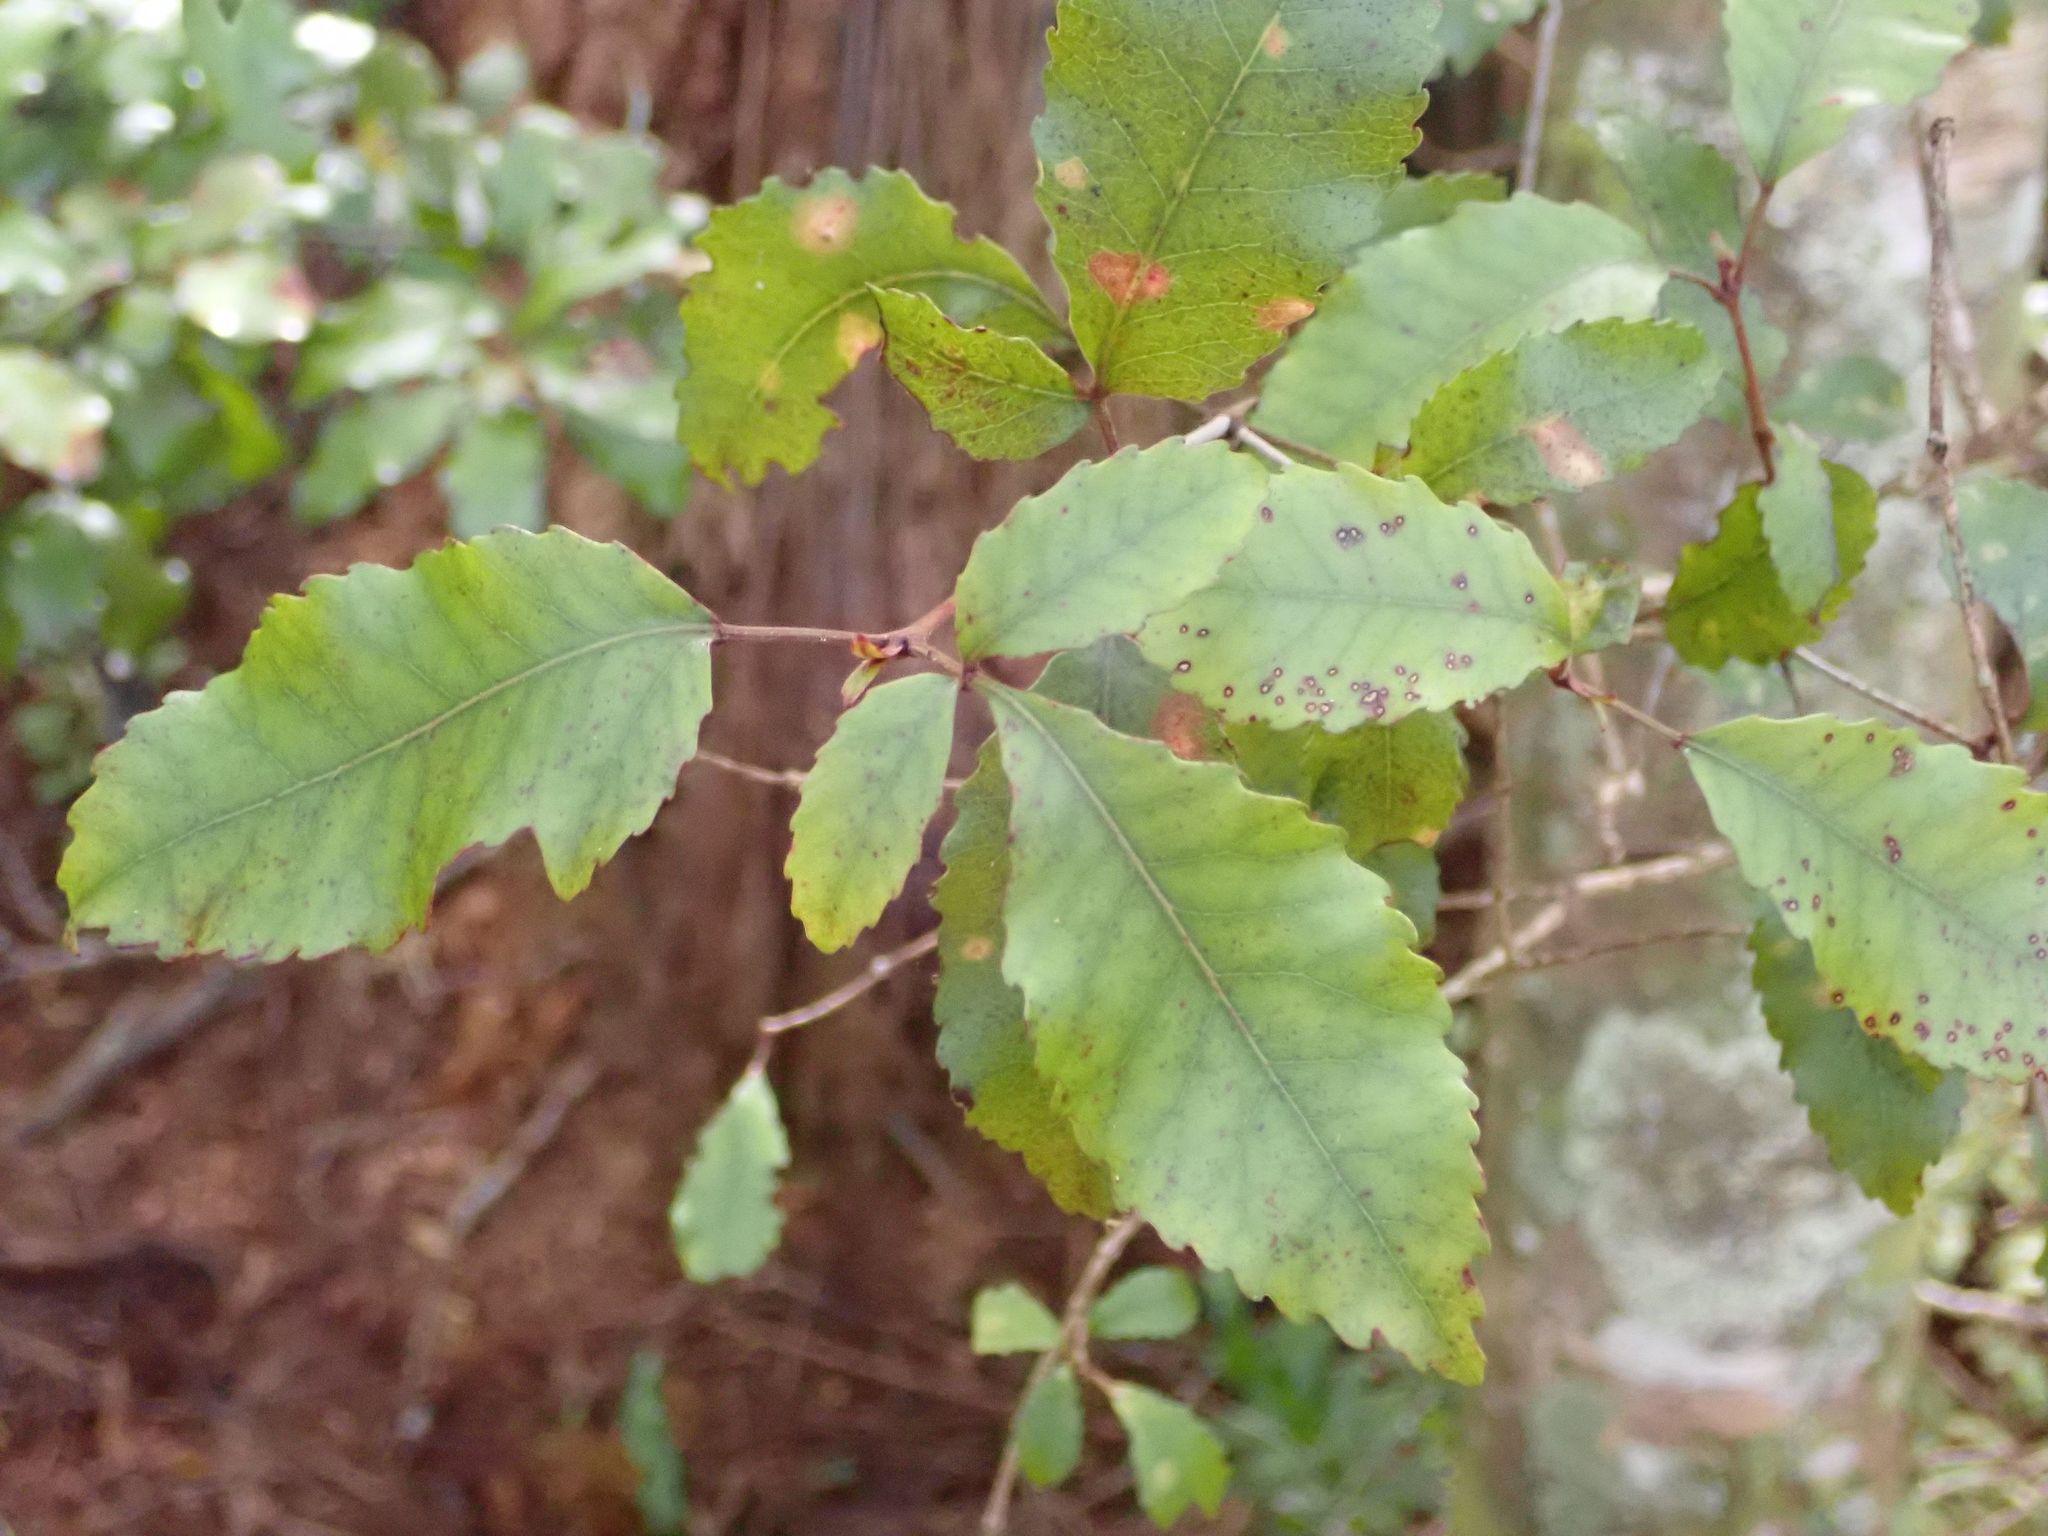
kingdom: Plantae
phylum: Tracheophyta
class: Magnoliopsida
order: Oxalidales
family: Cunoniaceae
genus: Pterophylla
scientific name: Pterophylla racemosa
